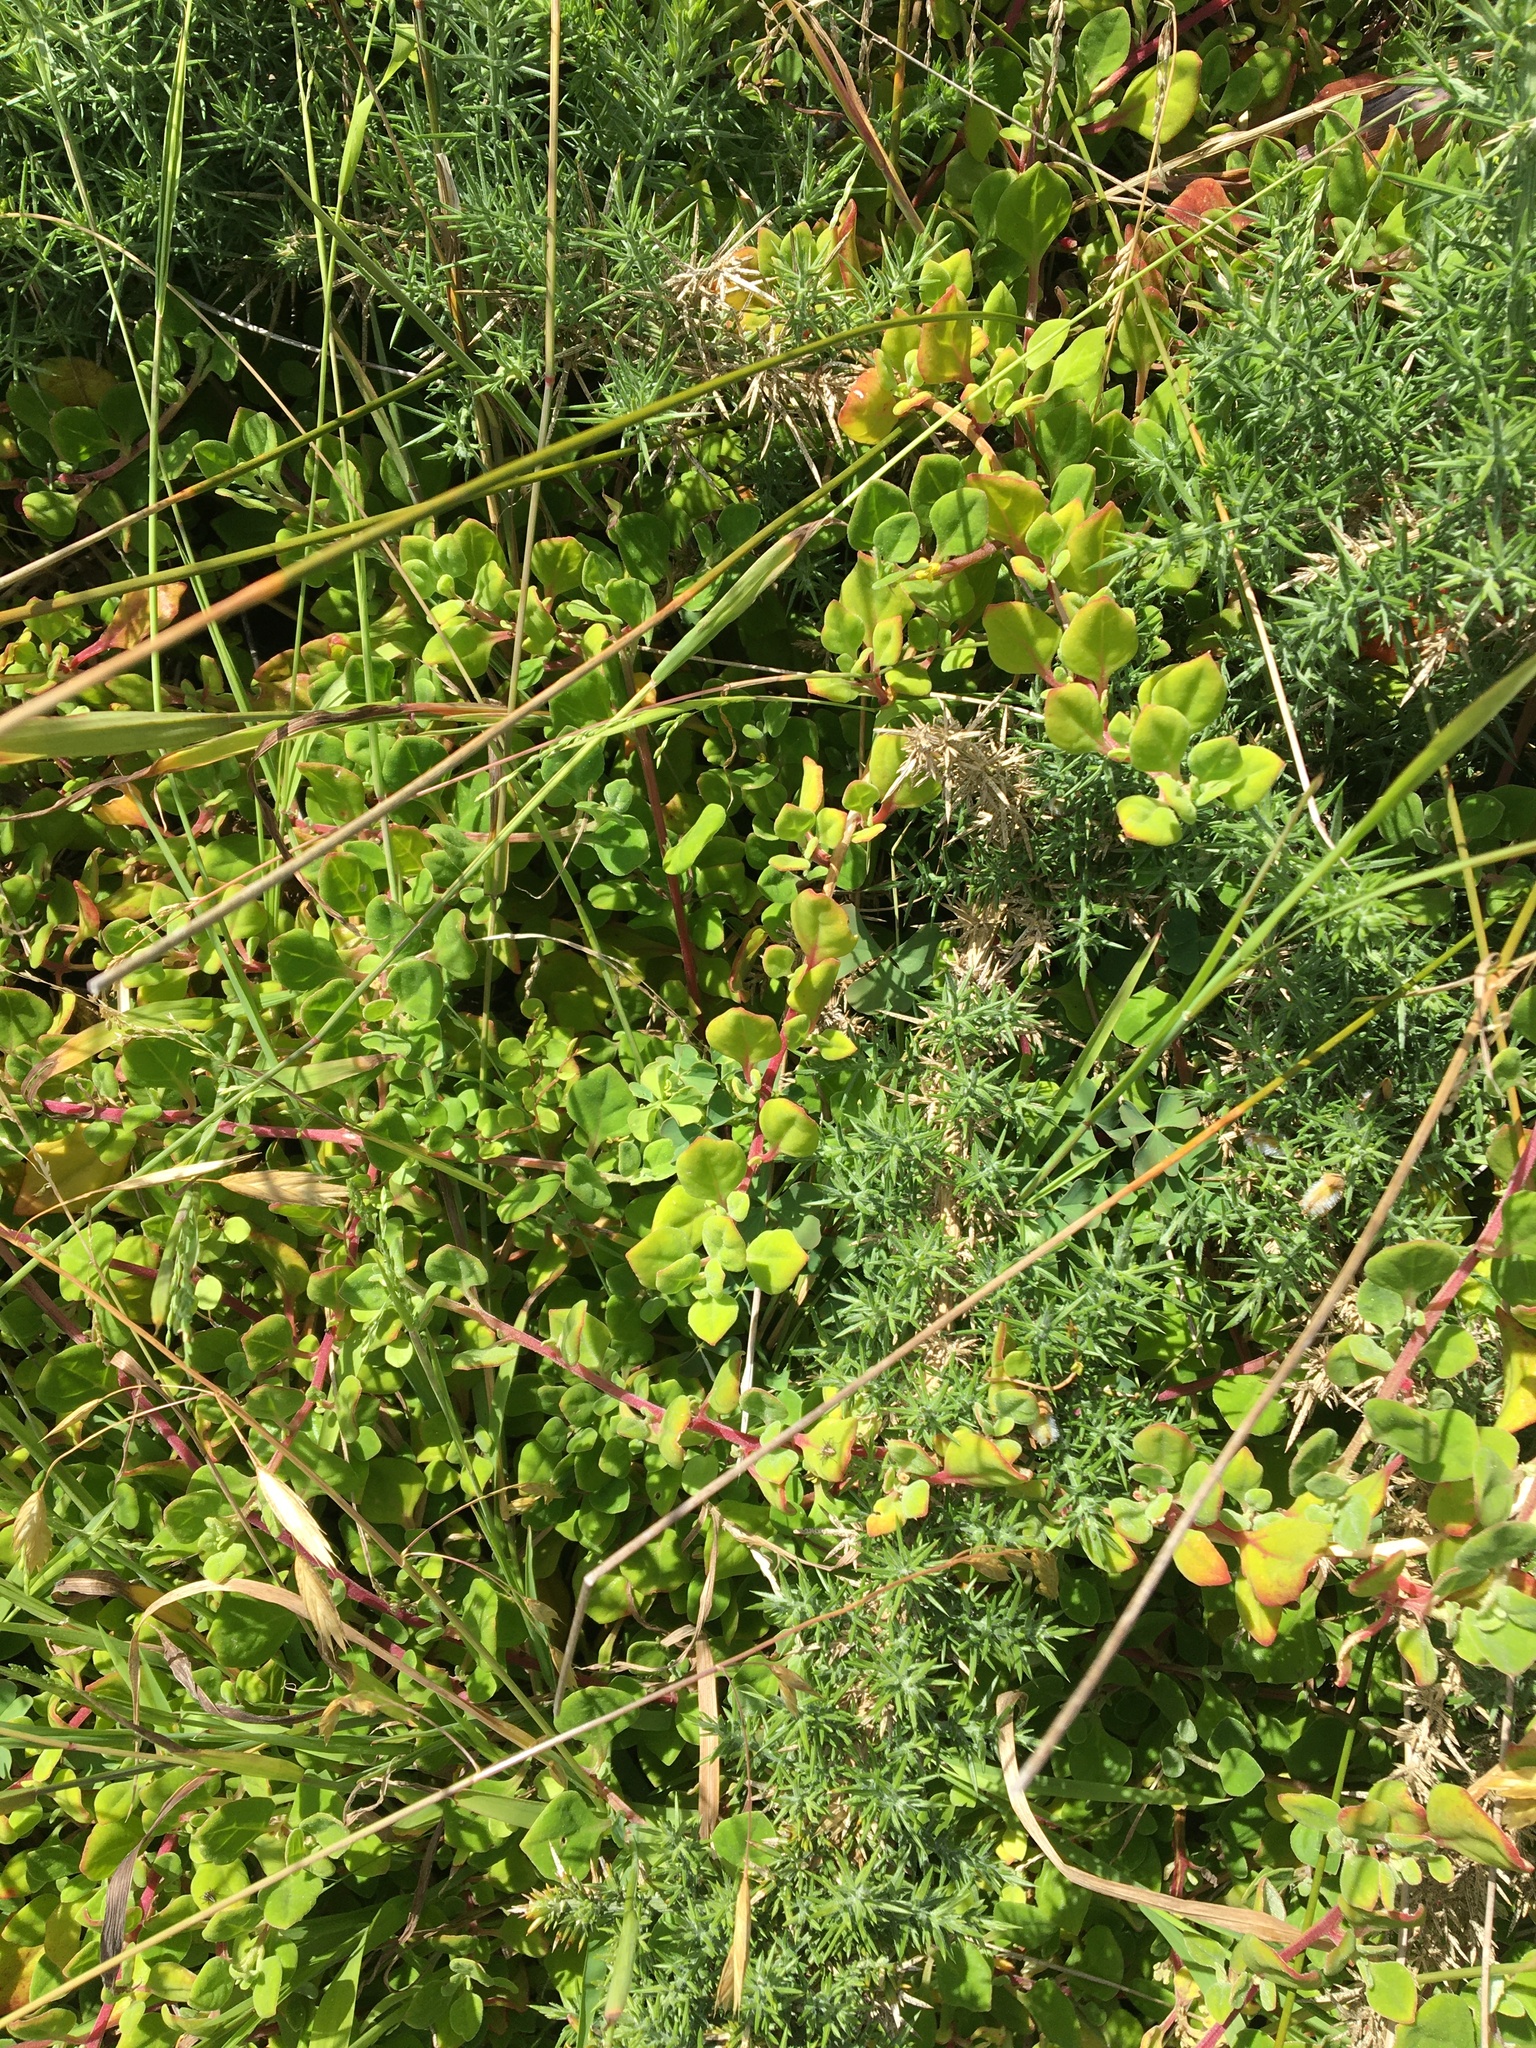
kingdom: Plantae
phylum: Tracheophyta
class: Magnoliopsida
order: Caryophyllales
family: Aizoaceae
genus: Tetragonia
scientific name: Tetragonia implexicoma
